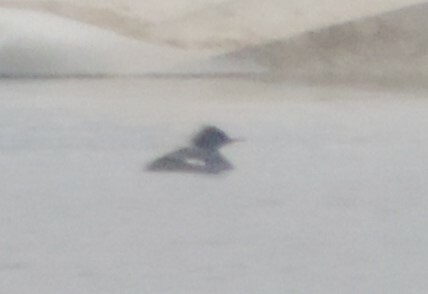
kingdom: Animalia
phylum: Chordata
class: Aves
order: Anseriformes
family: Anatidae
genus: Mergus
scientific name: Mergus merganser
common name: Common merganser
